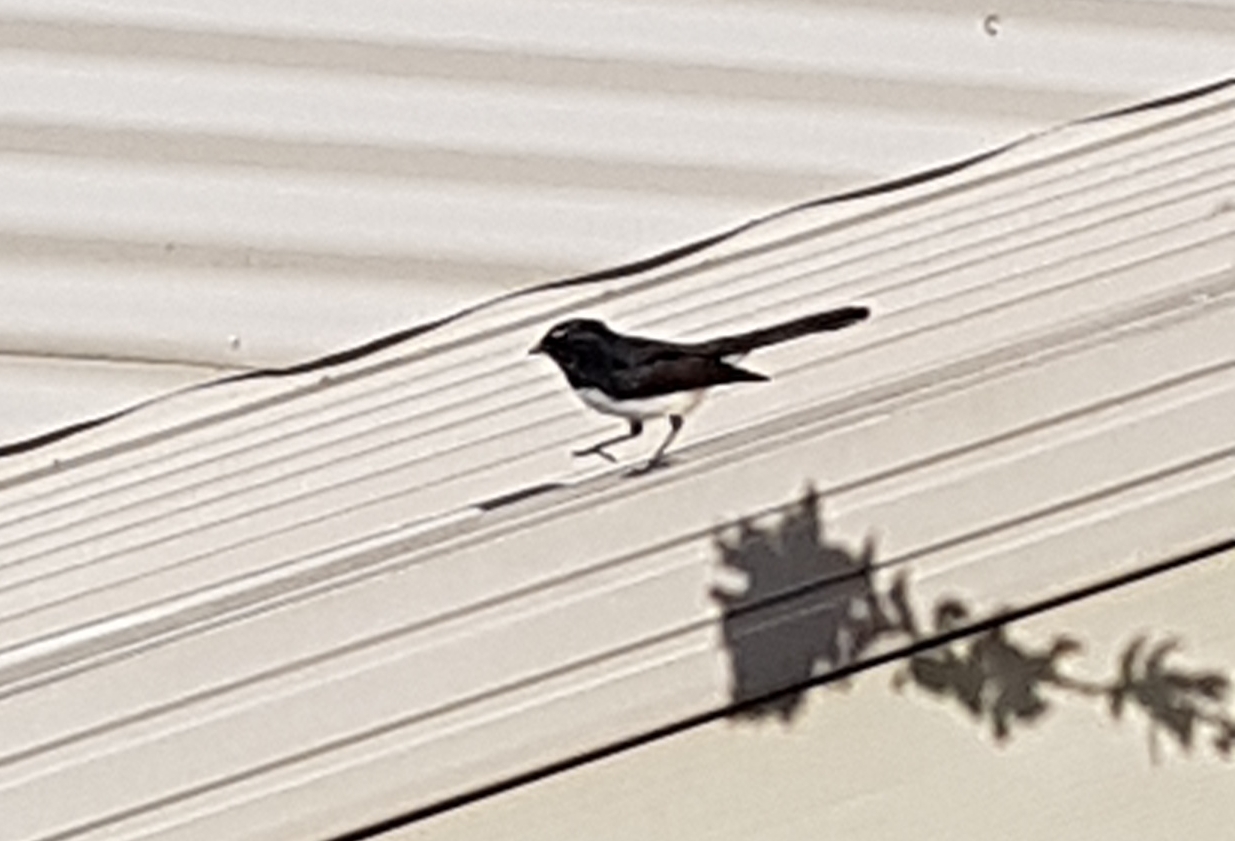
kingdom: Animalia
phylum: Chordata
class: Aves
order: Passeriformes
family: Rhipiduridae
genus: Rhipidura
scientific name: Rhipidura leucophrys
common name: Willie wagtail
